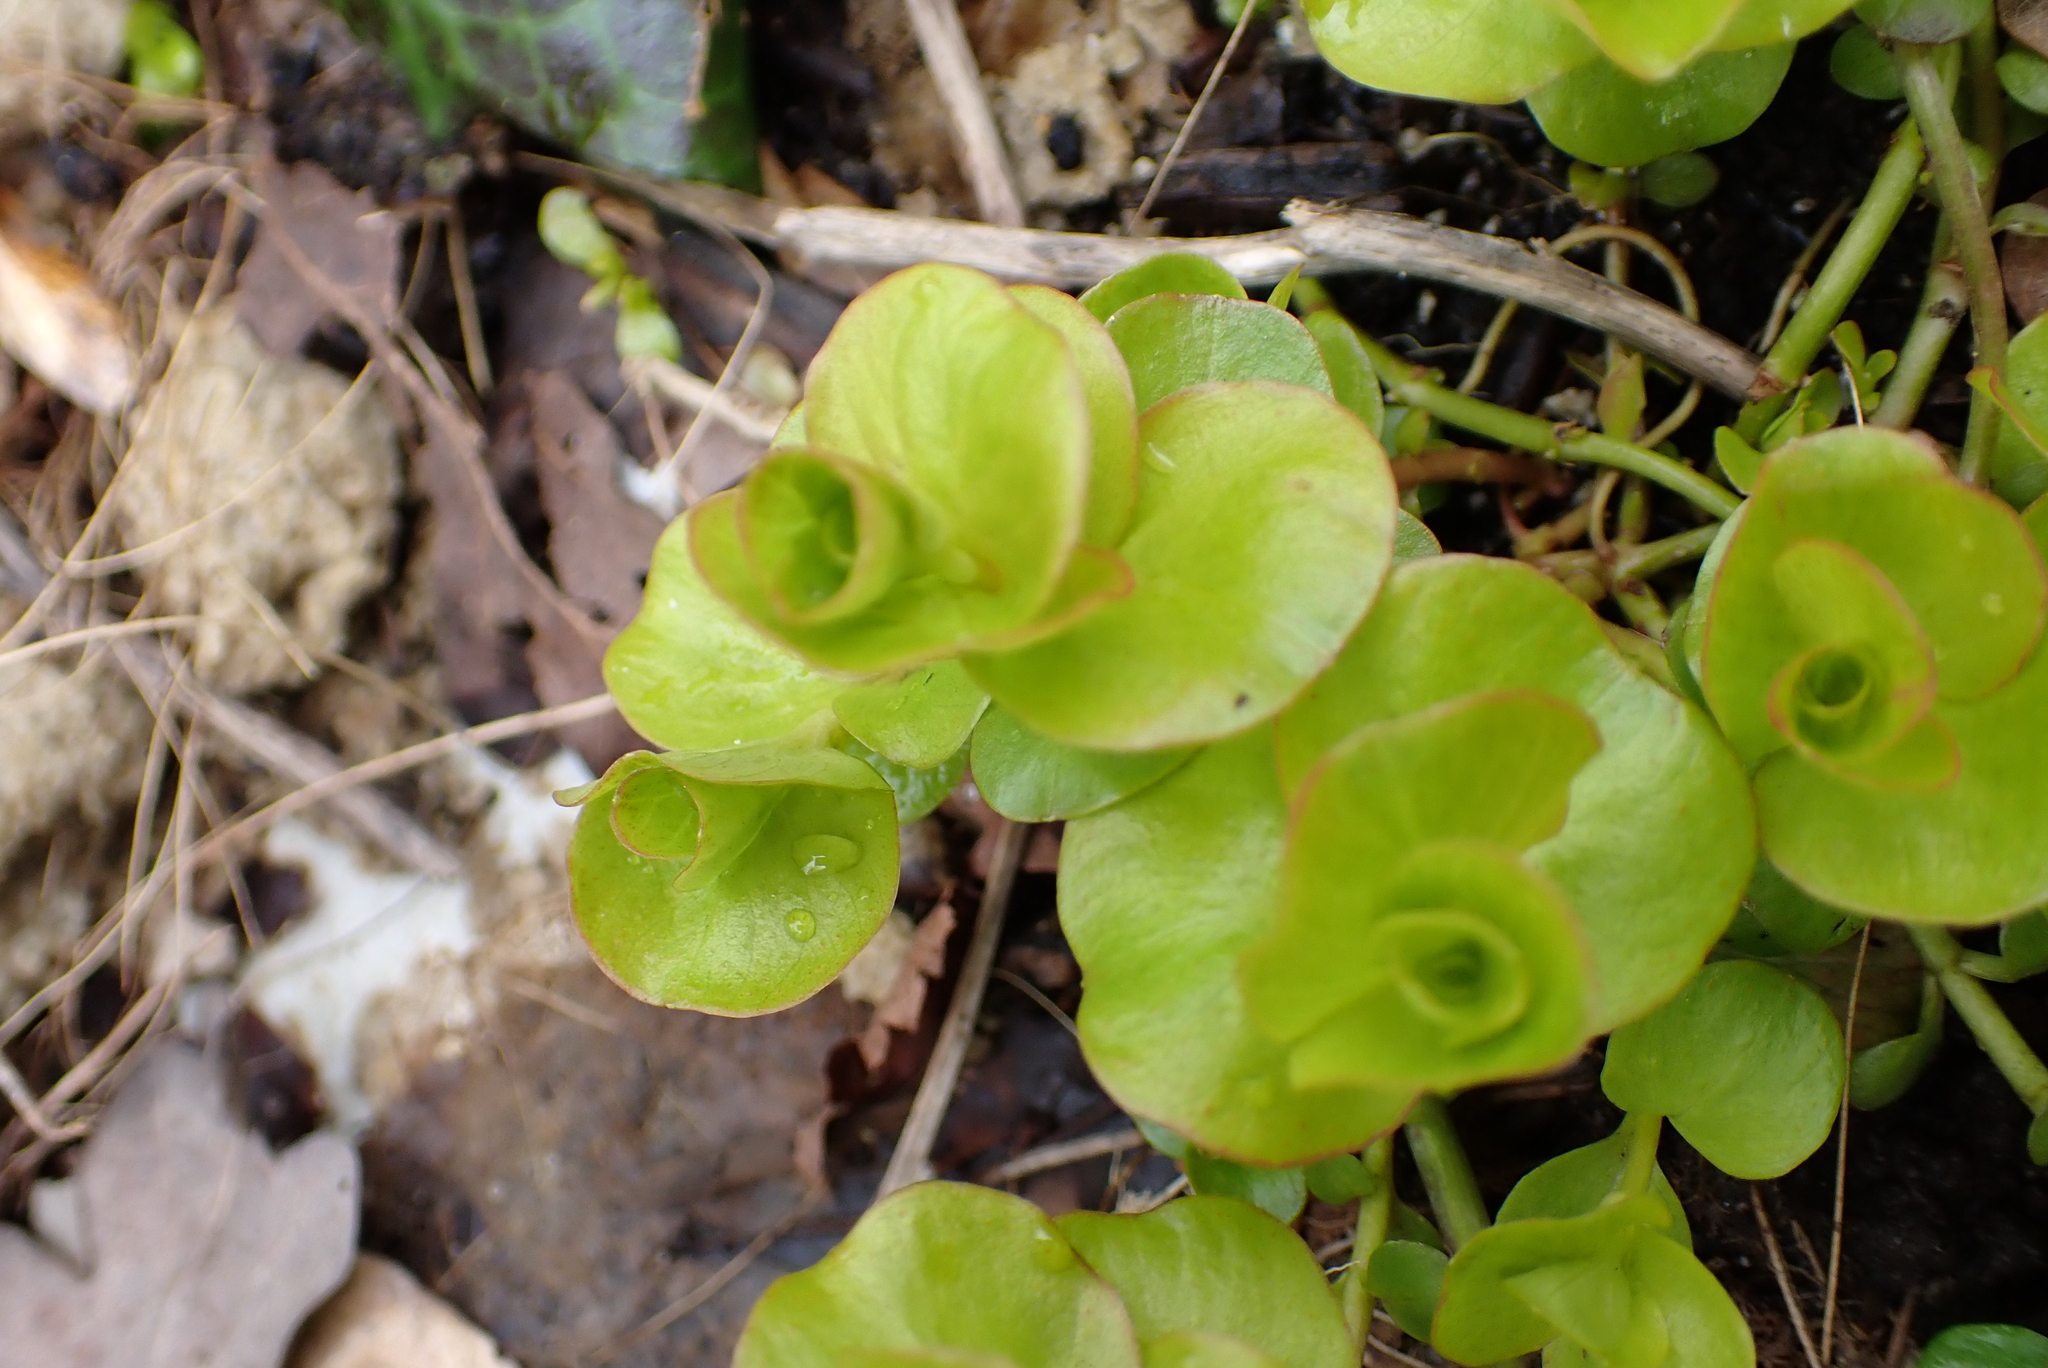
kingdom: Plantae
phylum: Tracheophyta
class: Magnoliopsida
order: Ericales
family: Primulaceae
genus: Lysimachia
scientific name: Lysimachia nummularia
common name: Moneywort
